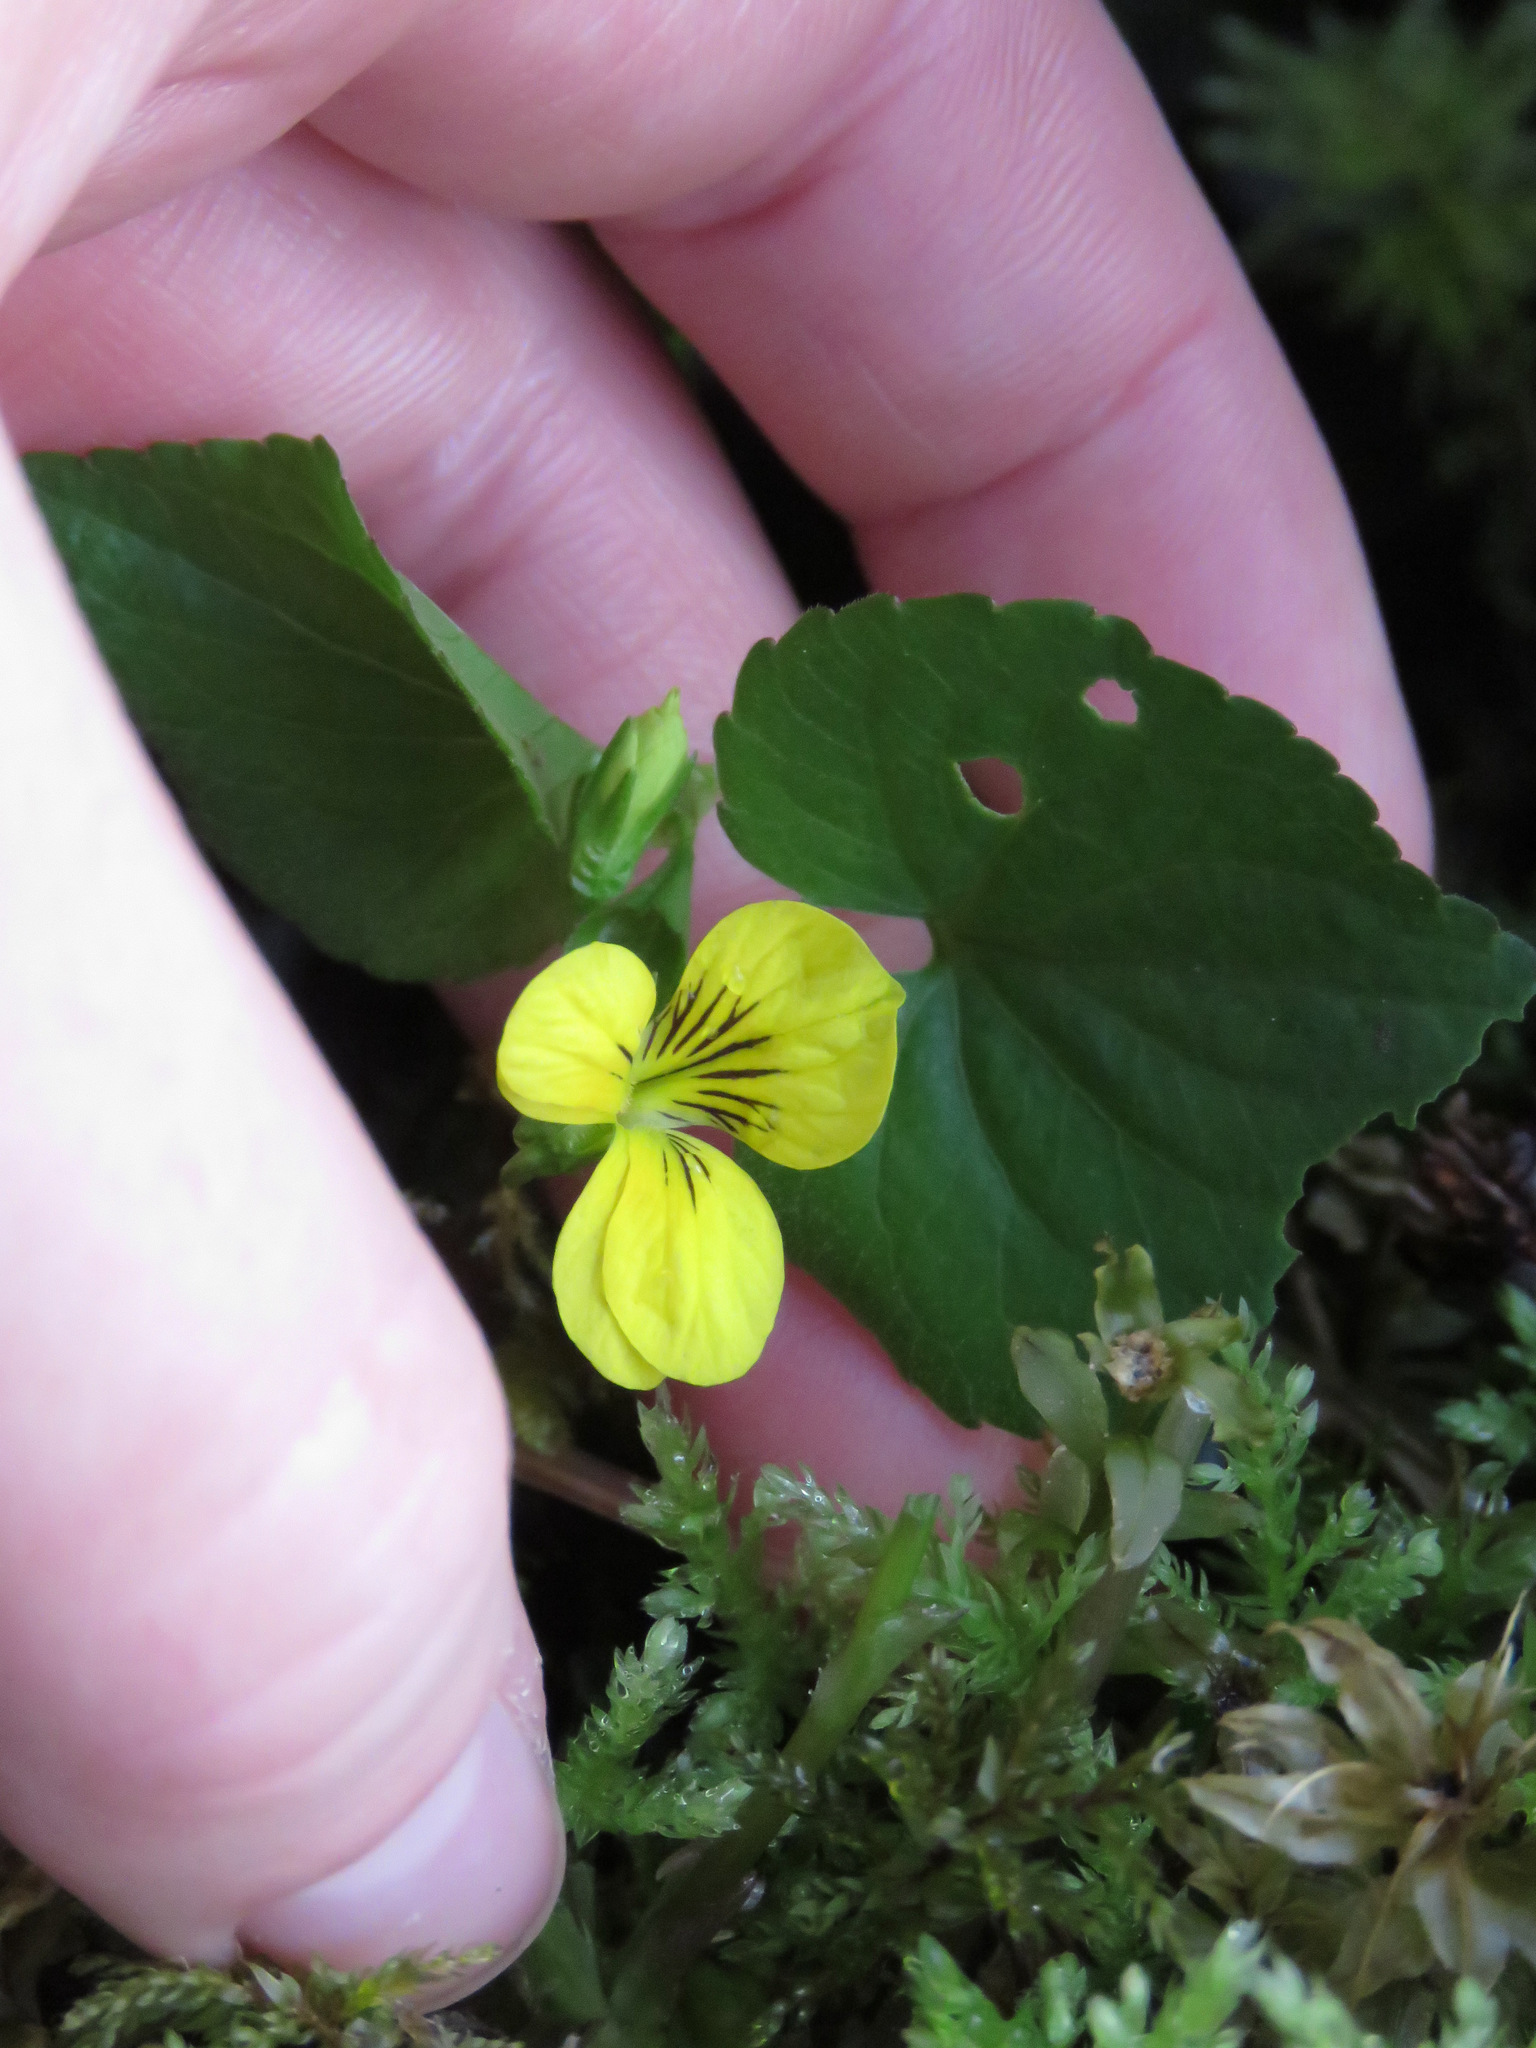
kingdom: Plantae
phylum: Tracheophyta
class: Magnoliopsida
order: Malpighiales
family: Violaceae
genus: Viola
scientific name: Viola glabella
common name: Stream violet
